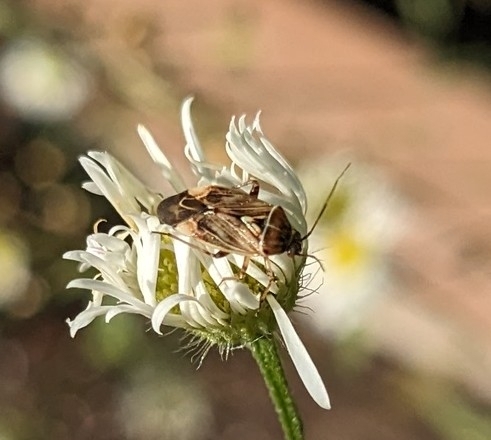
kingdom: Animalia
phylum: Arthropoda
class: Insecta
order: Hemiptera
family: Miridae
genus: Lygus
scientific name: Lygus lineolaris
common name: North american tarnished plant bug
